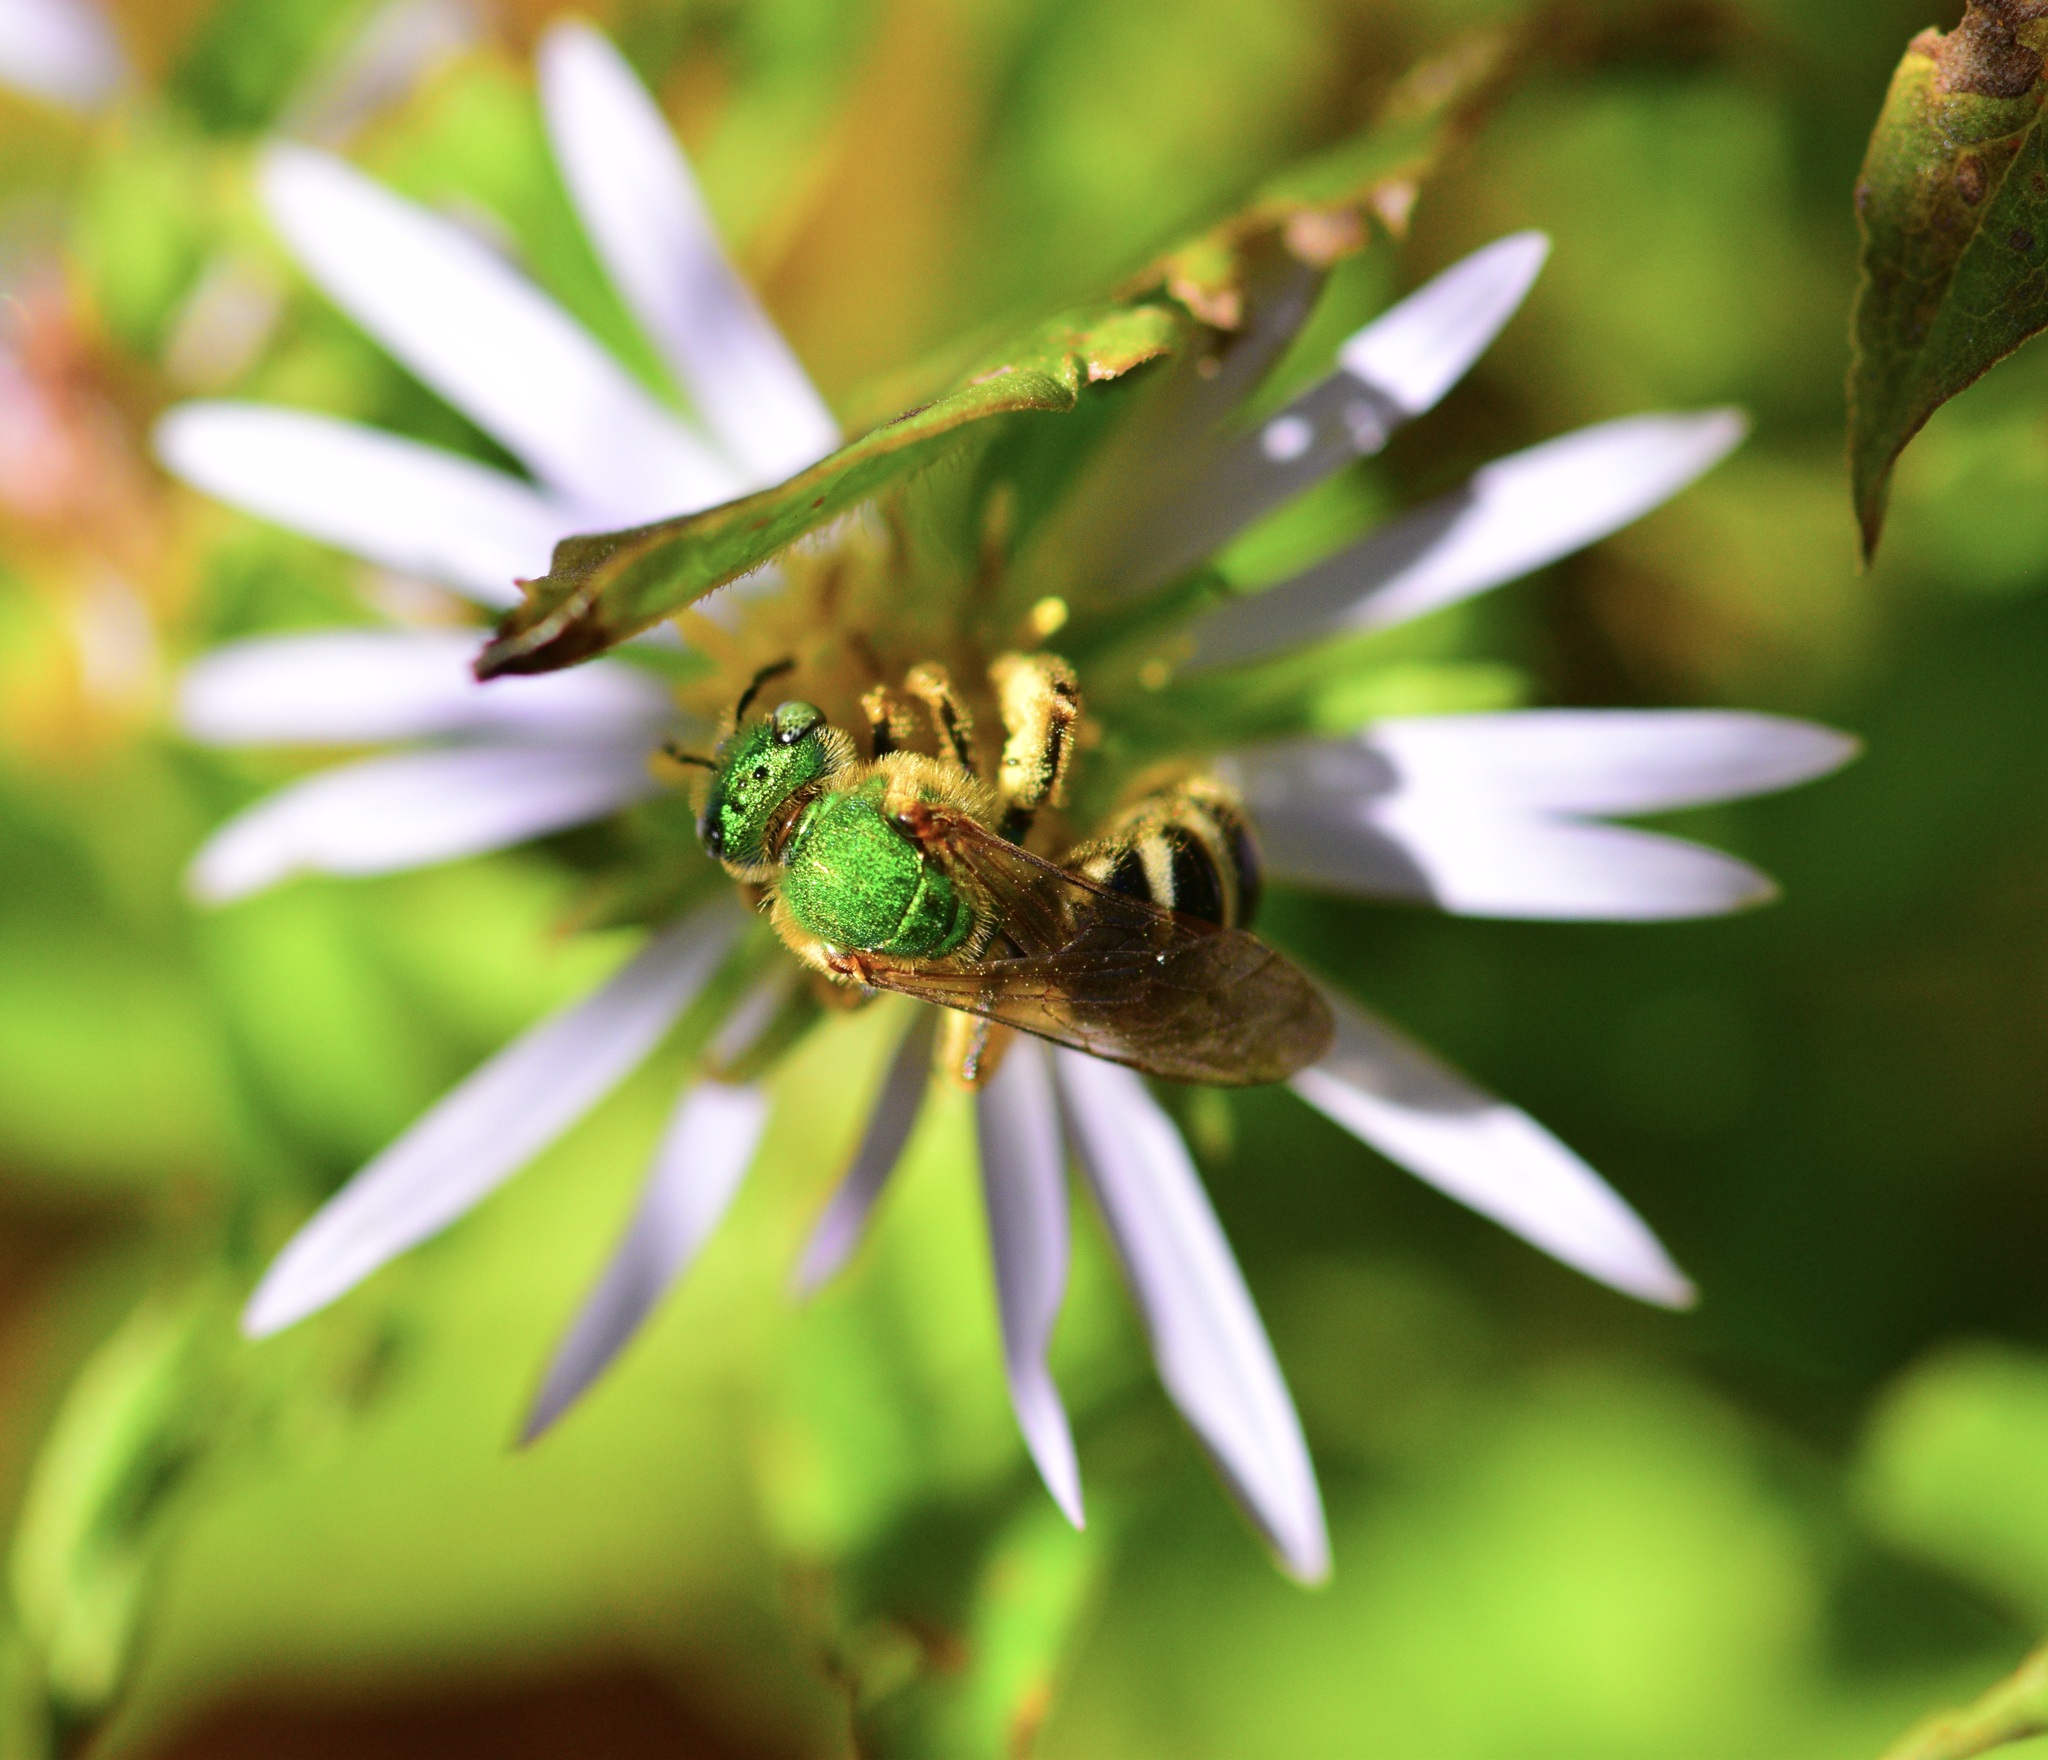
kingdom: Animalia
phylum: Arthropoda
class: Insecta
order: Hymenoptera
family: Halictidae
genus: Agapostemon
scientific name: Agapostemon virescens
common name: Bicolored striped sweat bee
